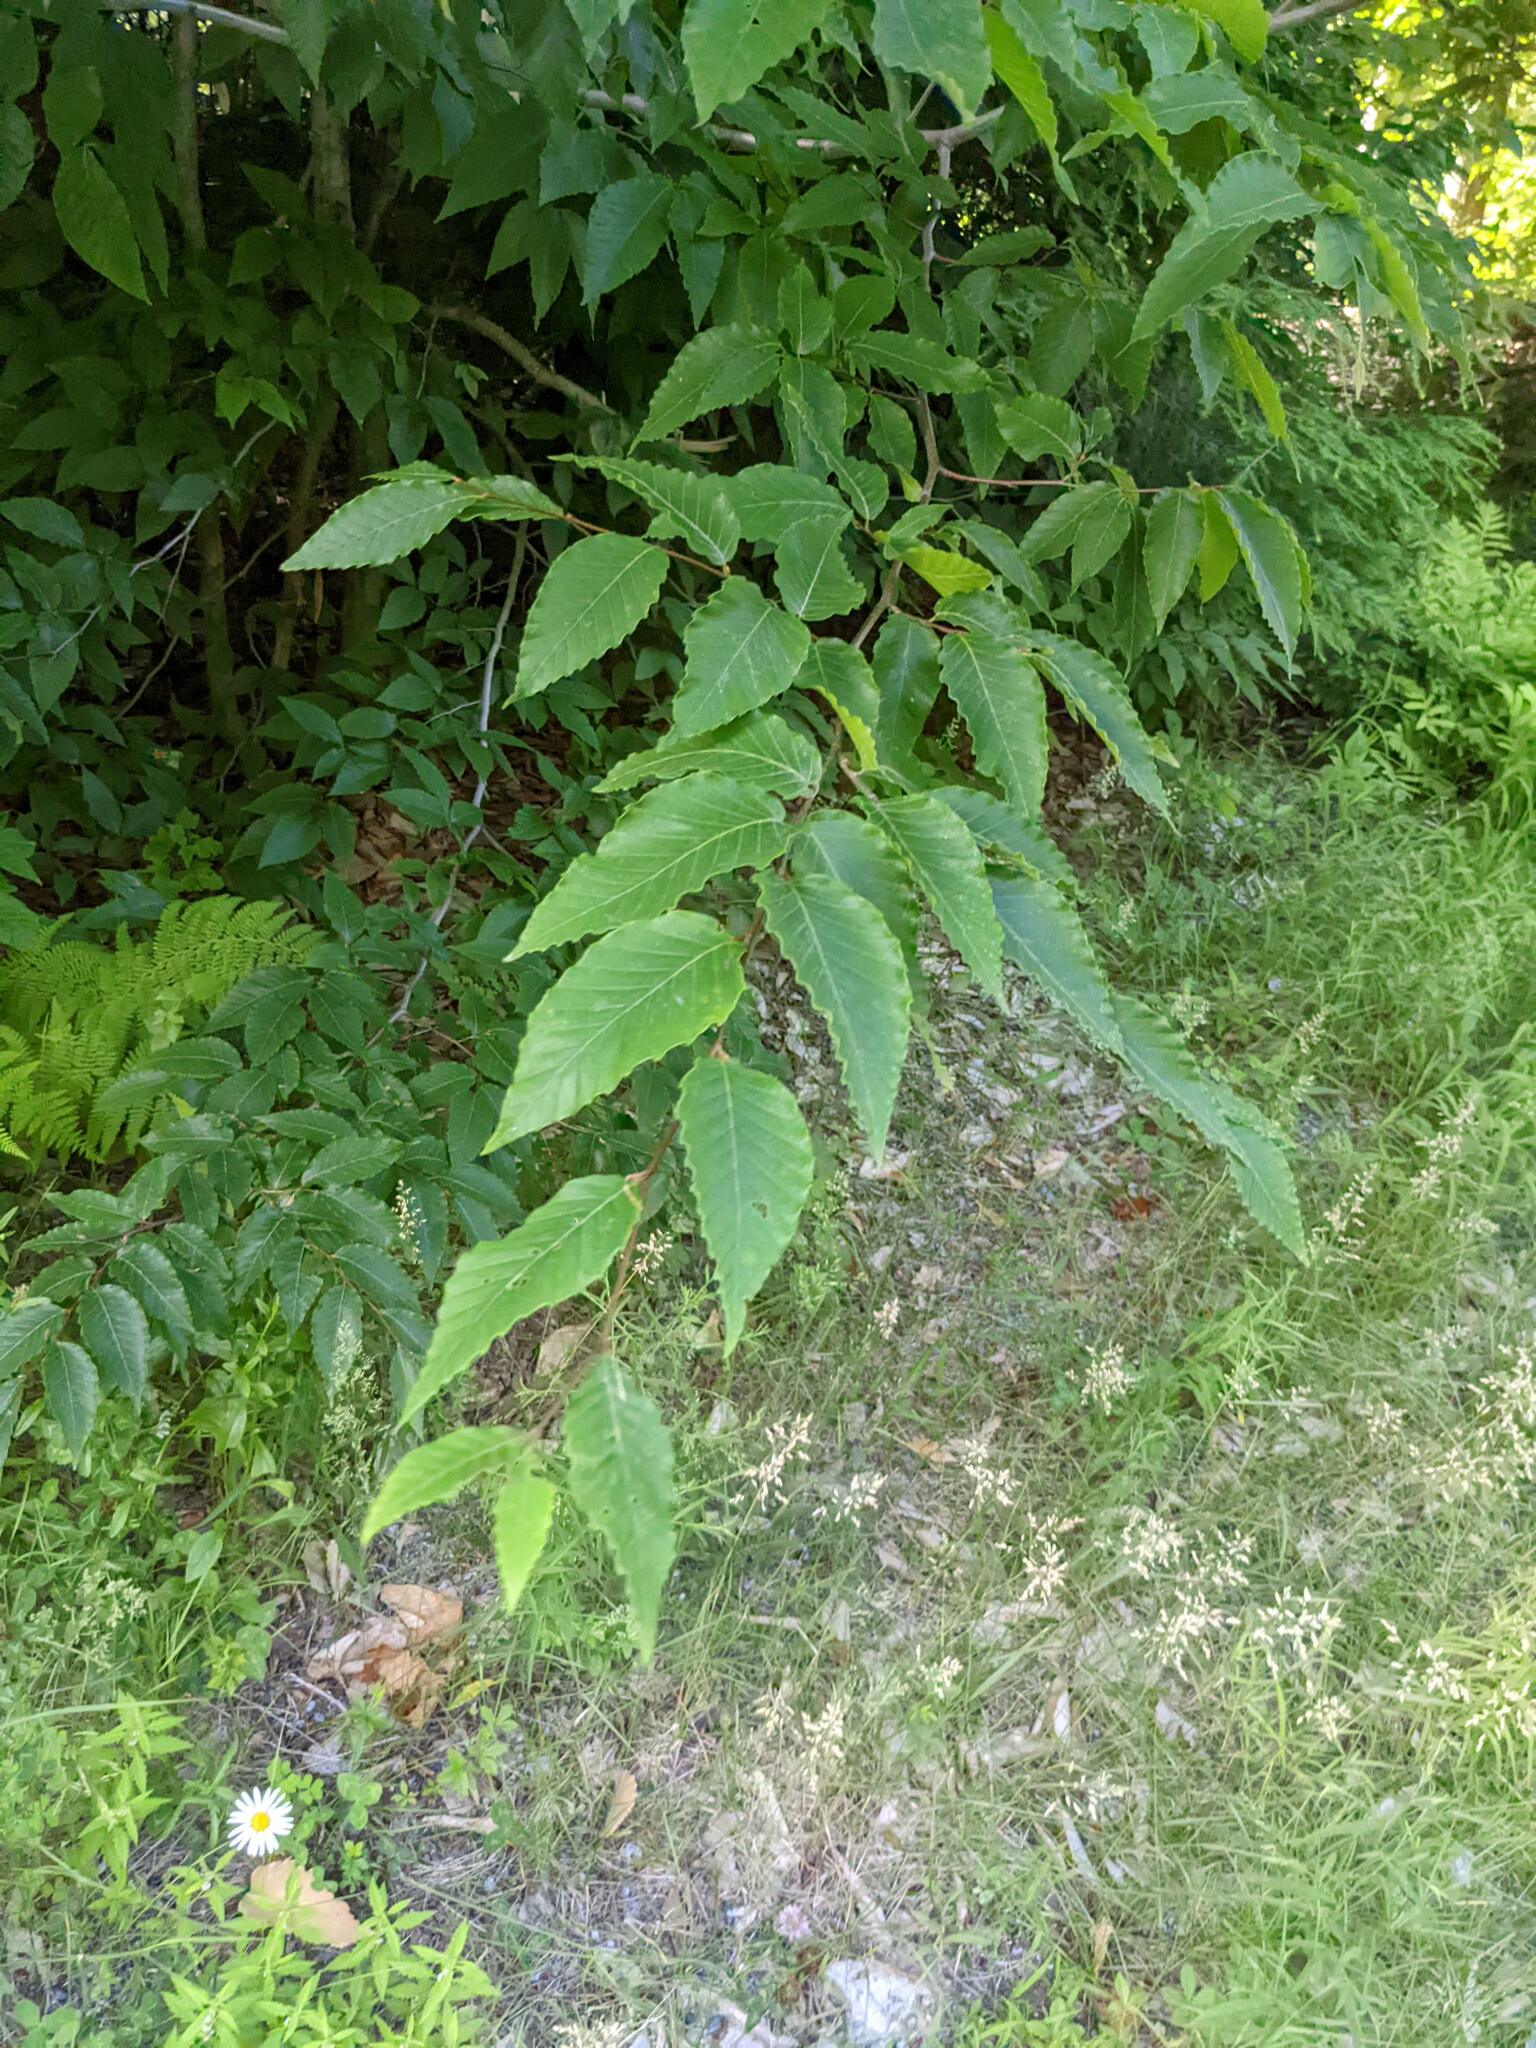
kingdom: Plantae
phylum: Tracheophyta
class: Magnoliopsida
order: Fagales
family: Fagaceae
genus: Fagus
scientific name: Fagus grandifolia
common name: American beech
